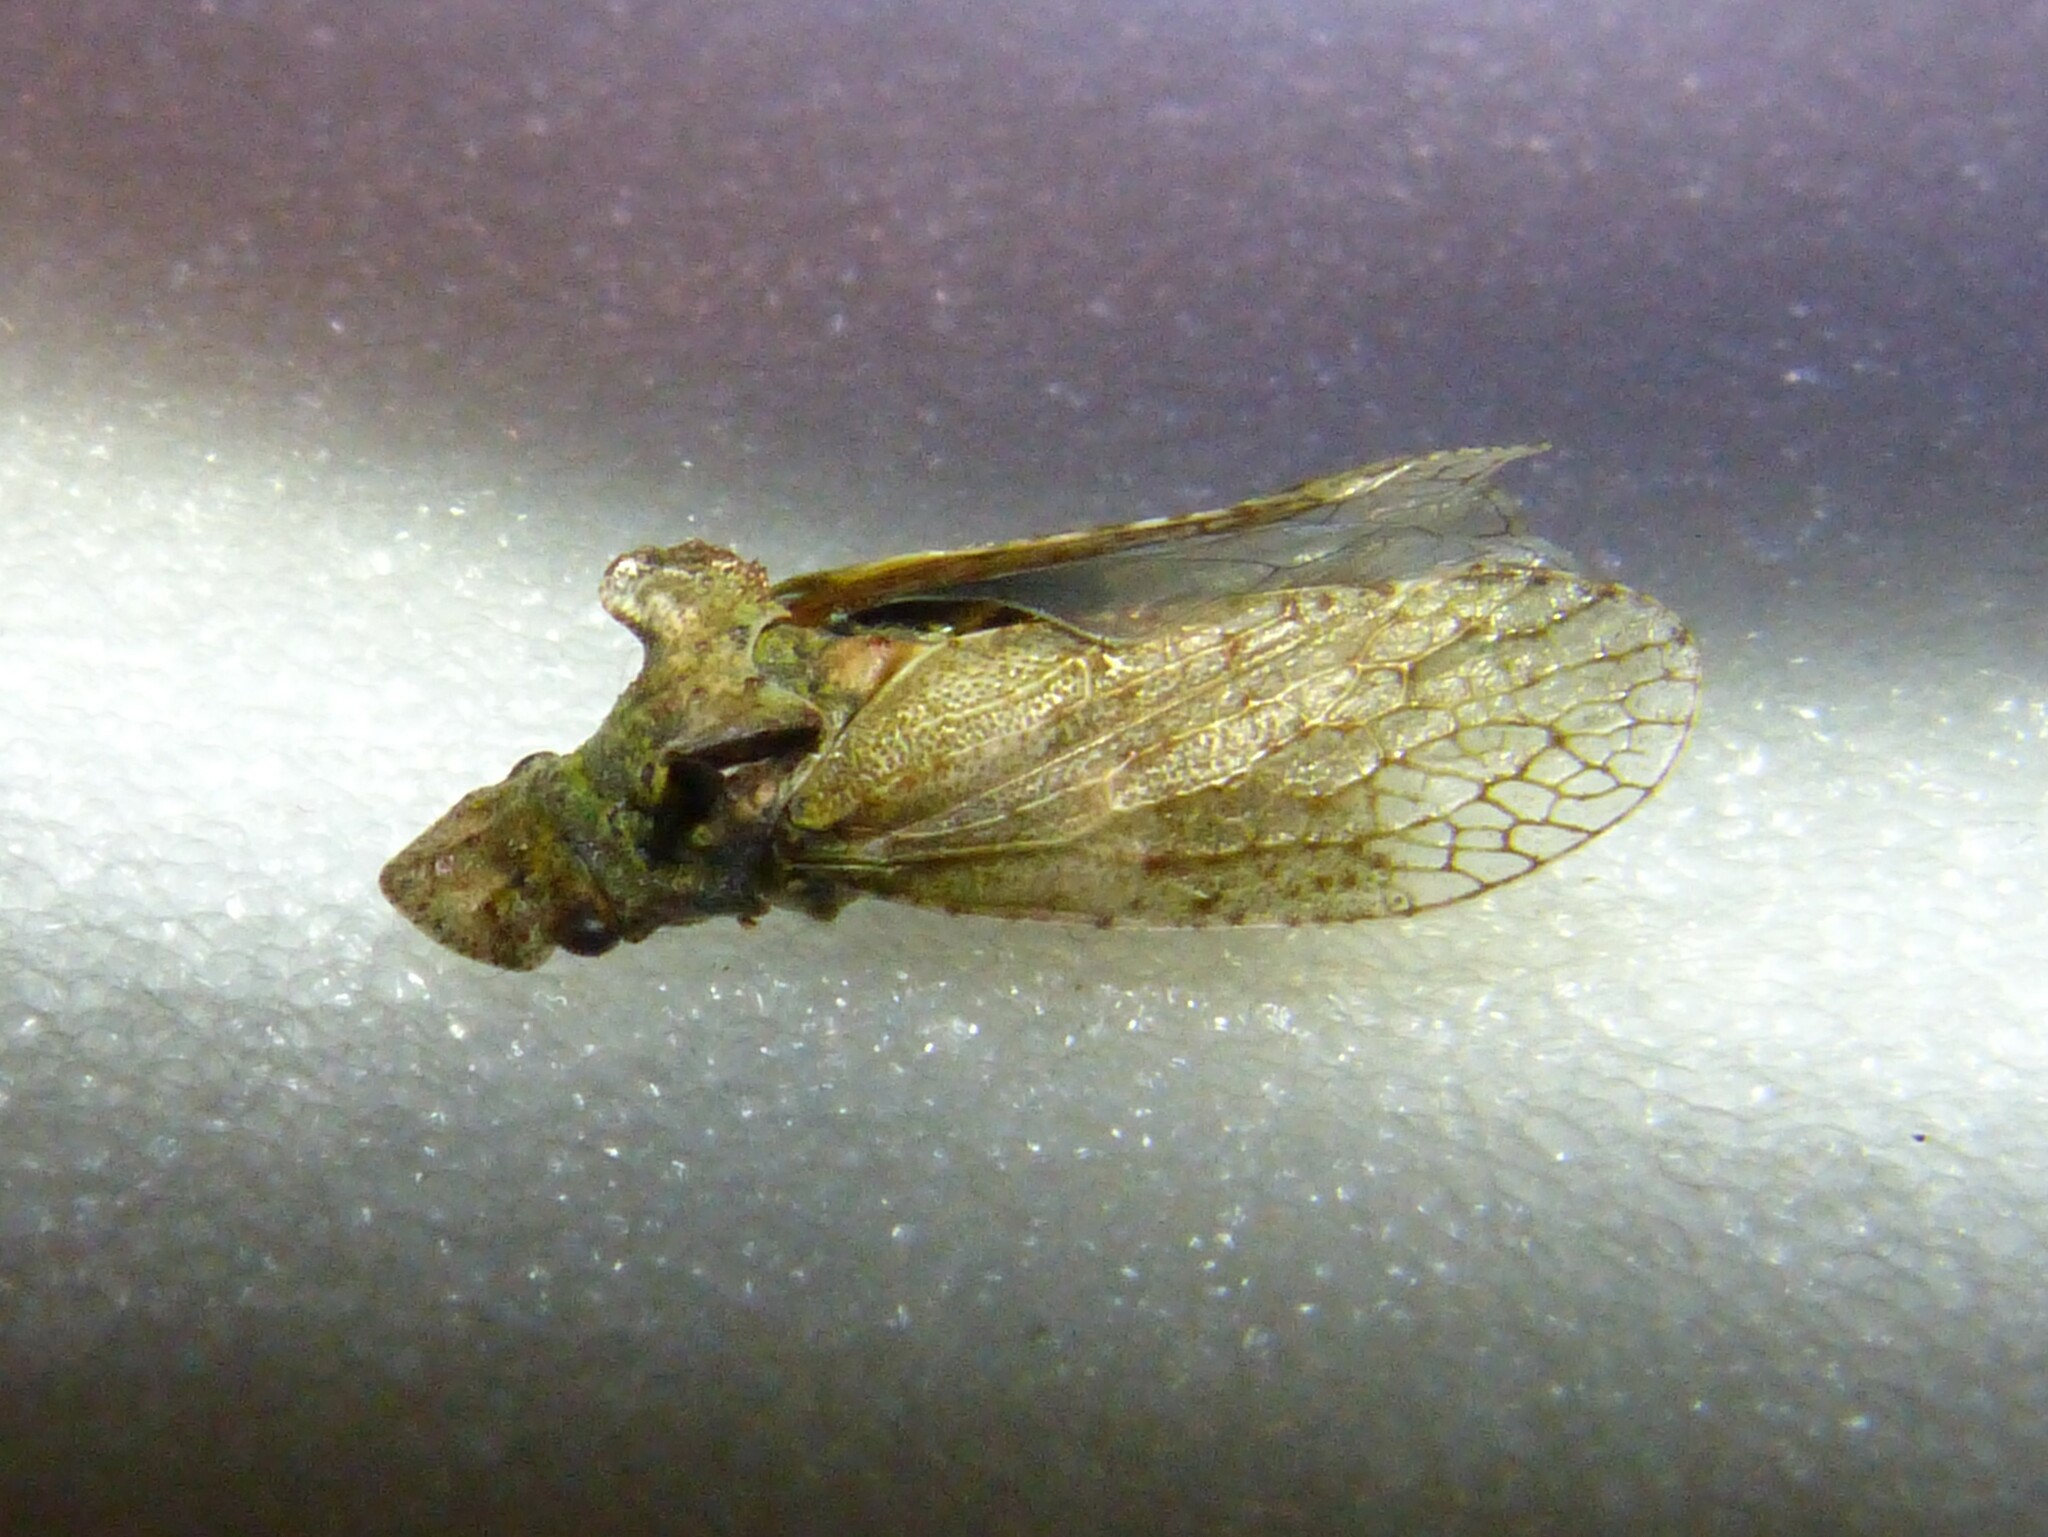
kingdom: Animalia
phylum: Arthropoda
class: Insecta
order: Hemiptera
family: Cicadellidae
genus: Ledra
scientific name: Ledra aurita
